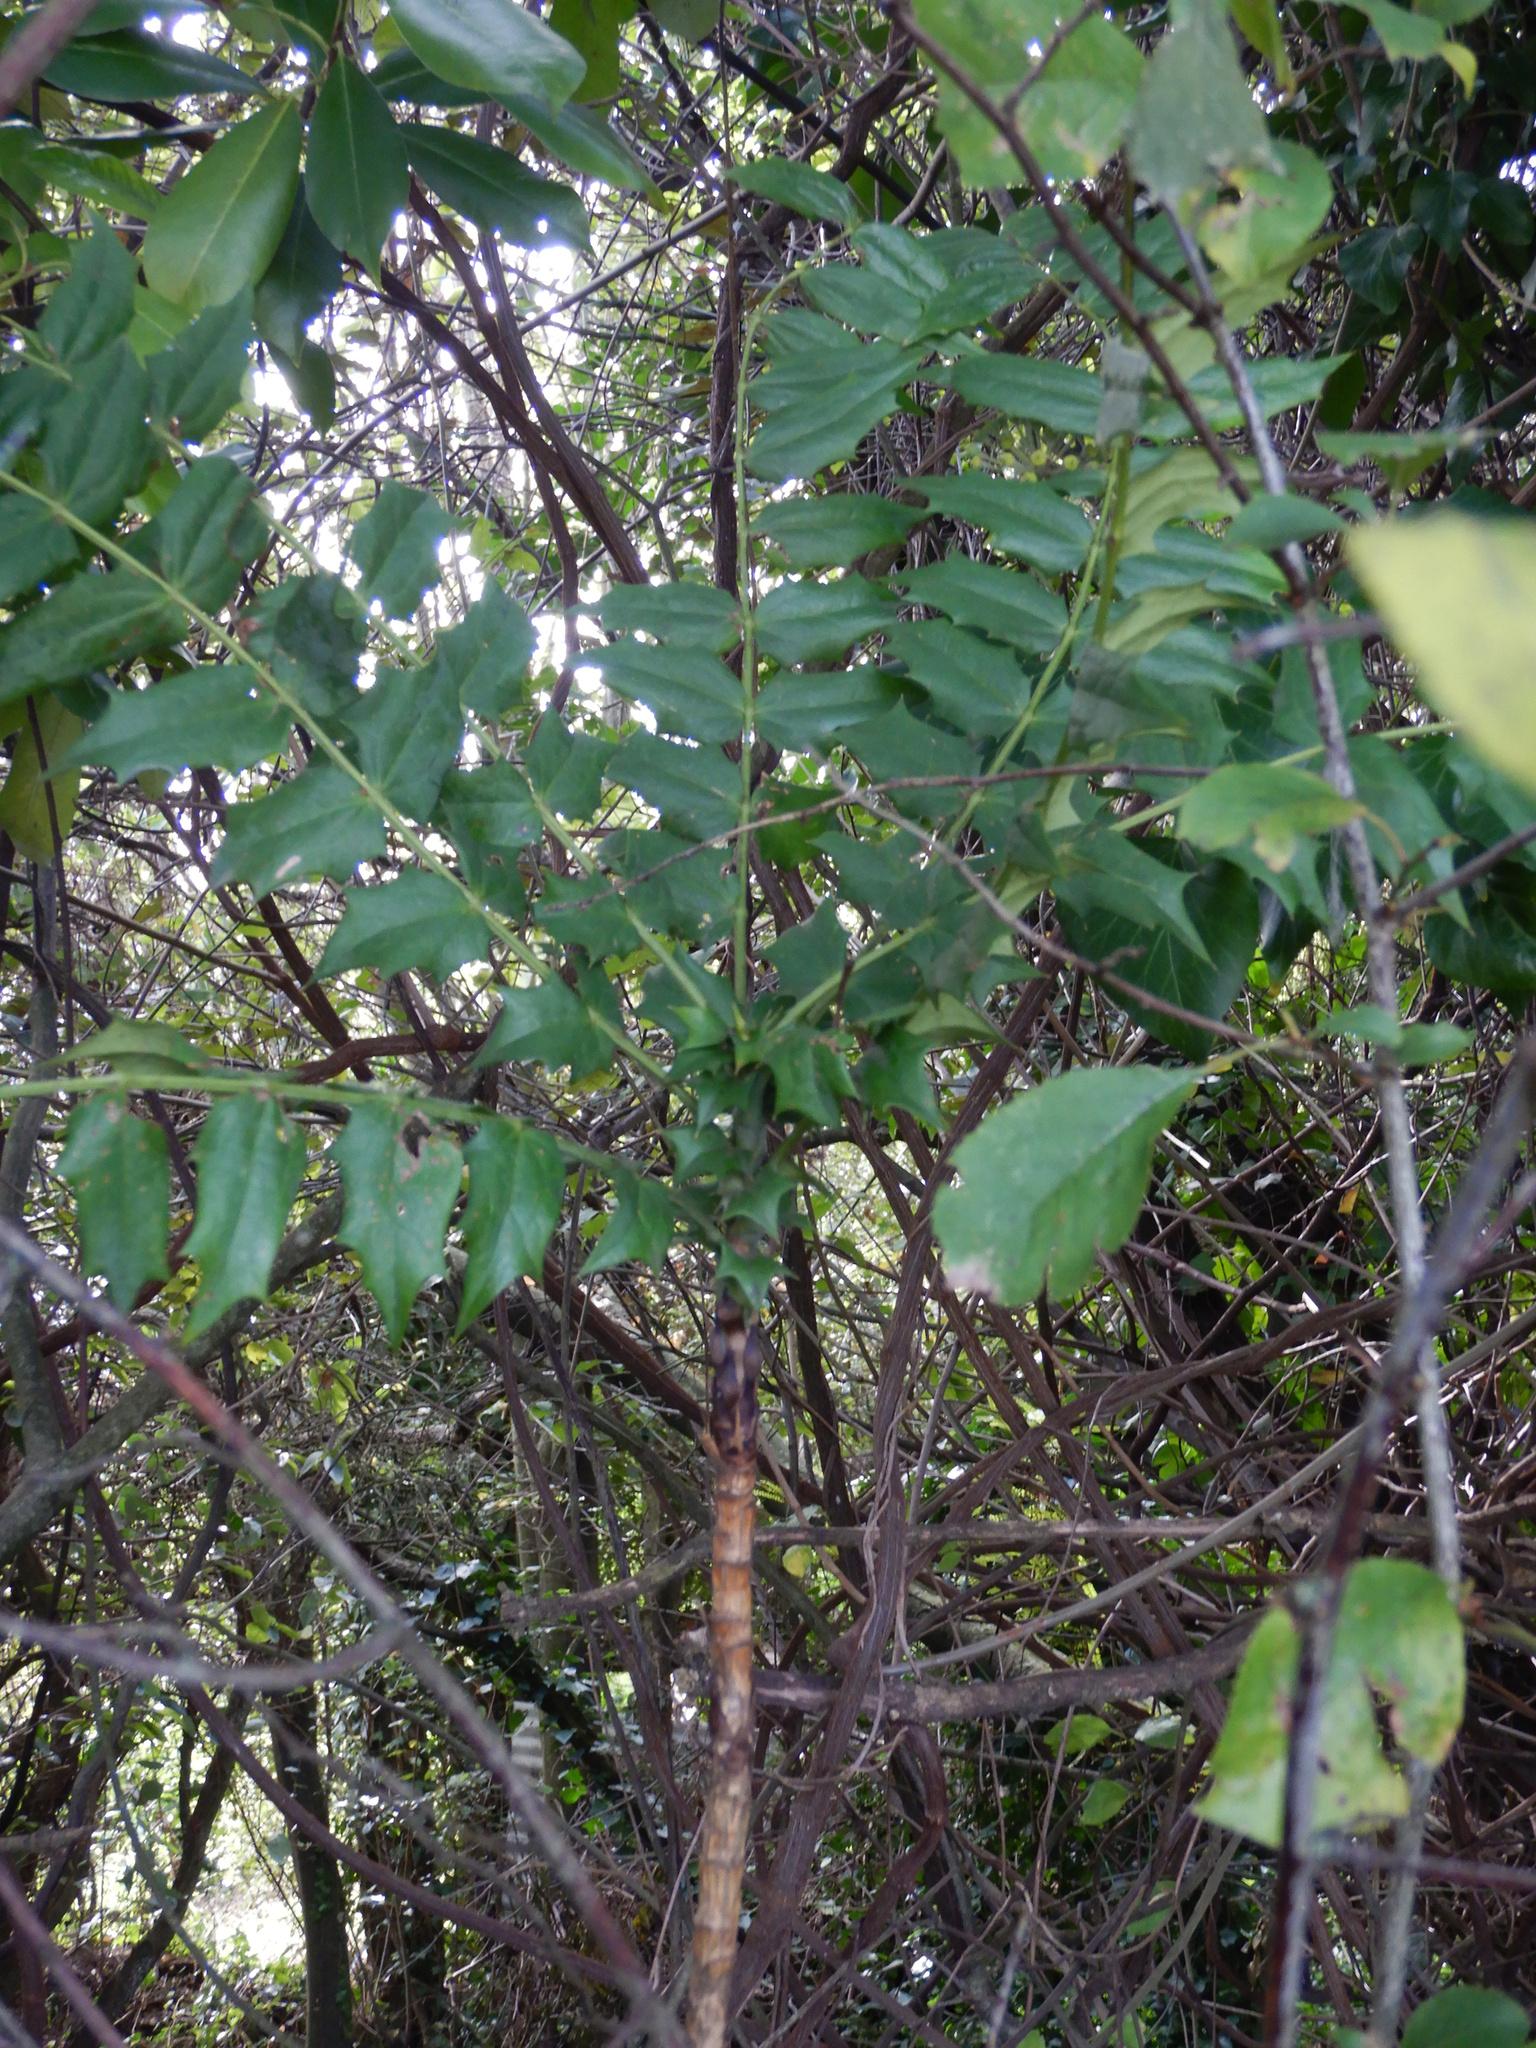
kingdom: Plantae
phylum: Tracheophyta
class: Magnoliopsida
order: Ranunculales
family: Berberidaceae
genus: Mahonia
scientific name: Mahonia aquifolium
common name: Oregon-grape
